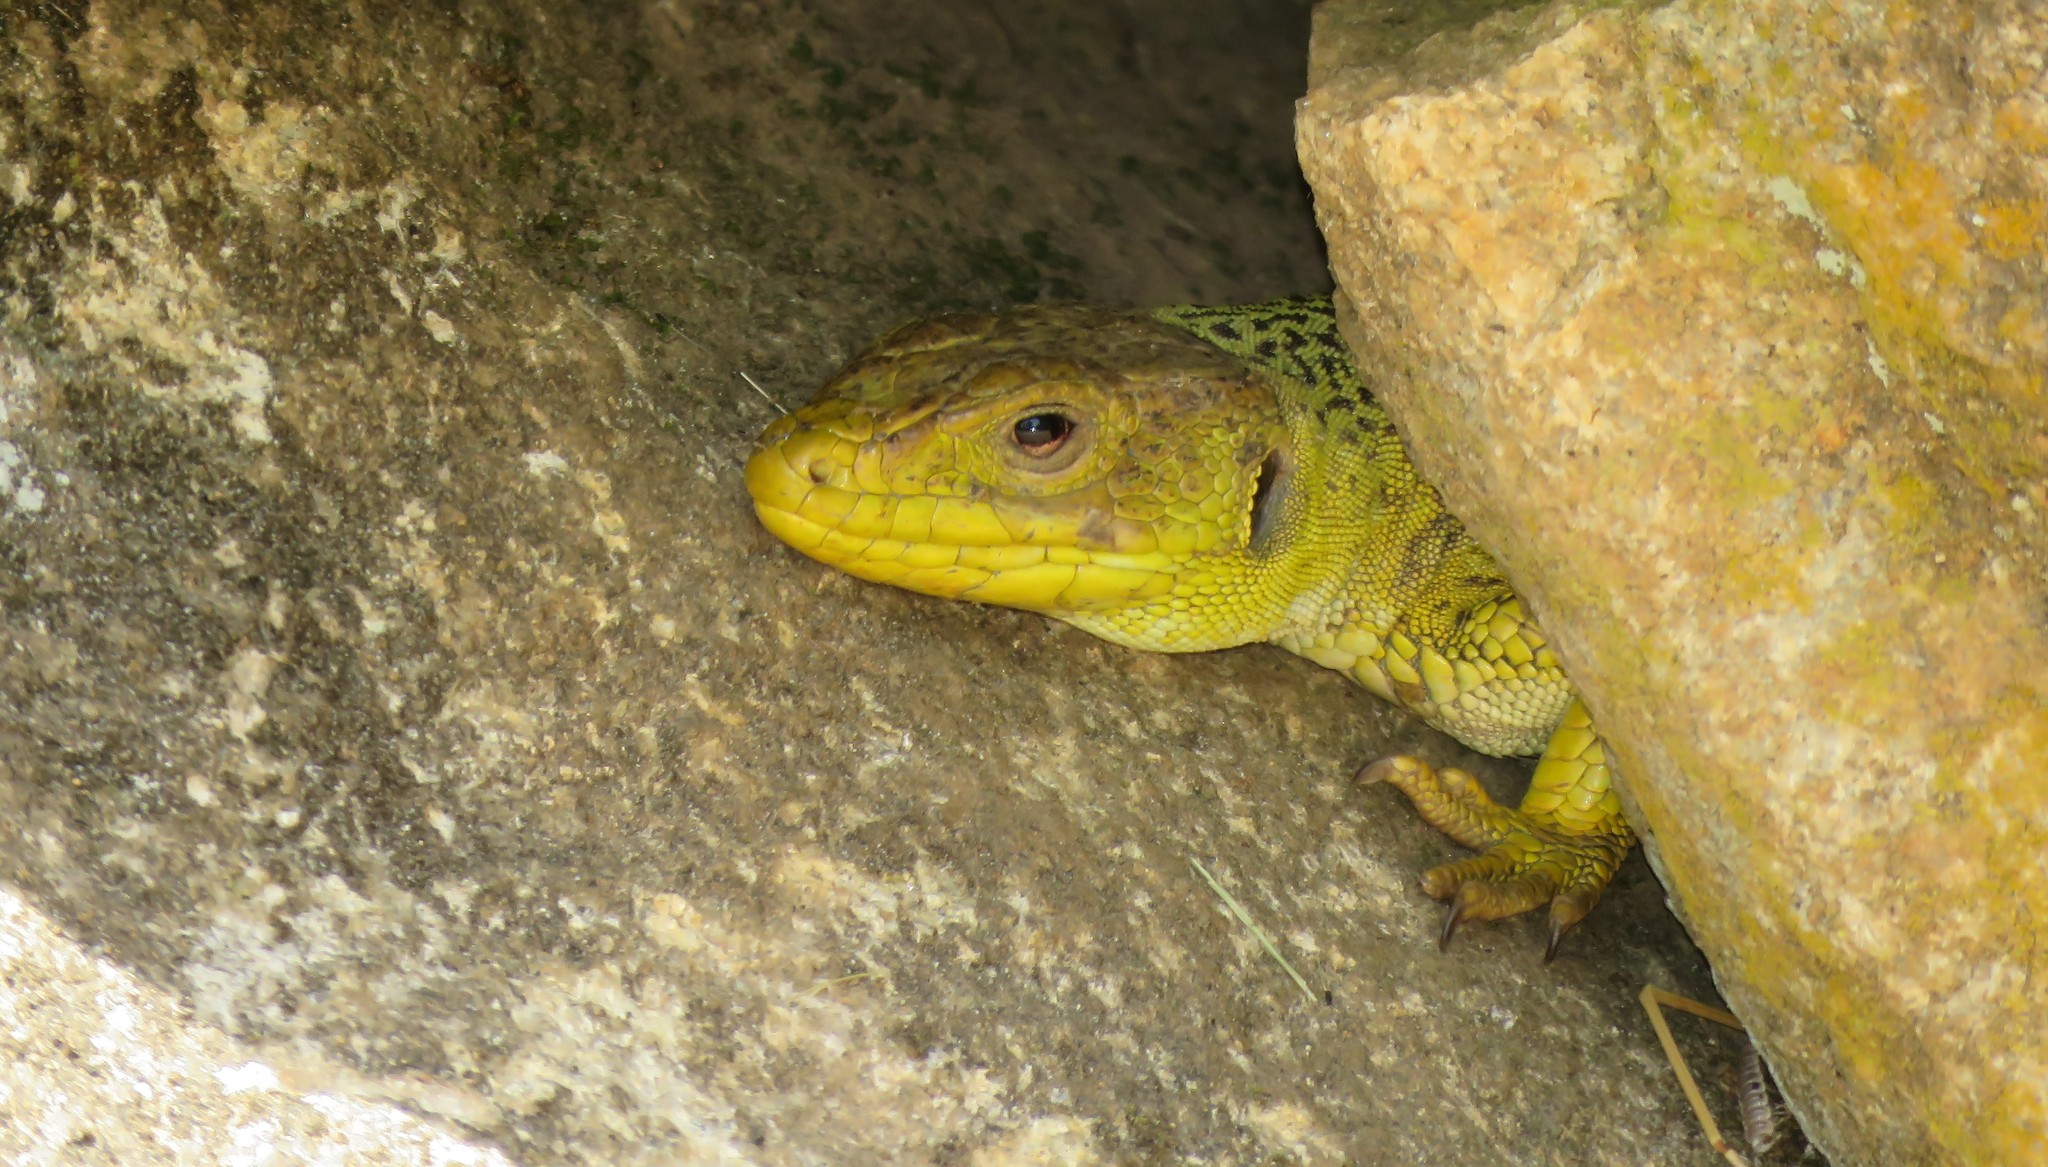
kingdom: Animalia
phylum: Chordata
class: Squamata
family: Lacertidae
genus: Timon
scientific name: Timon lepidus
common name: Ocellated lizard
